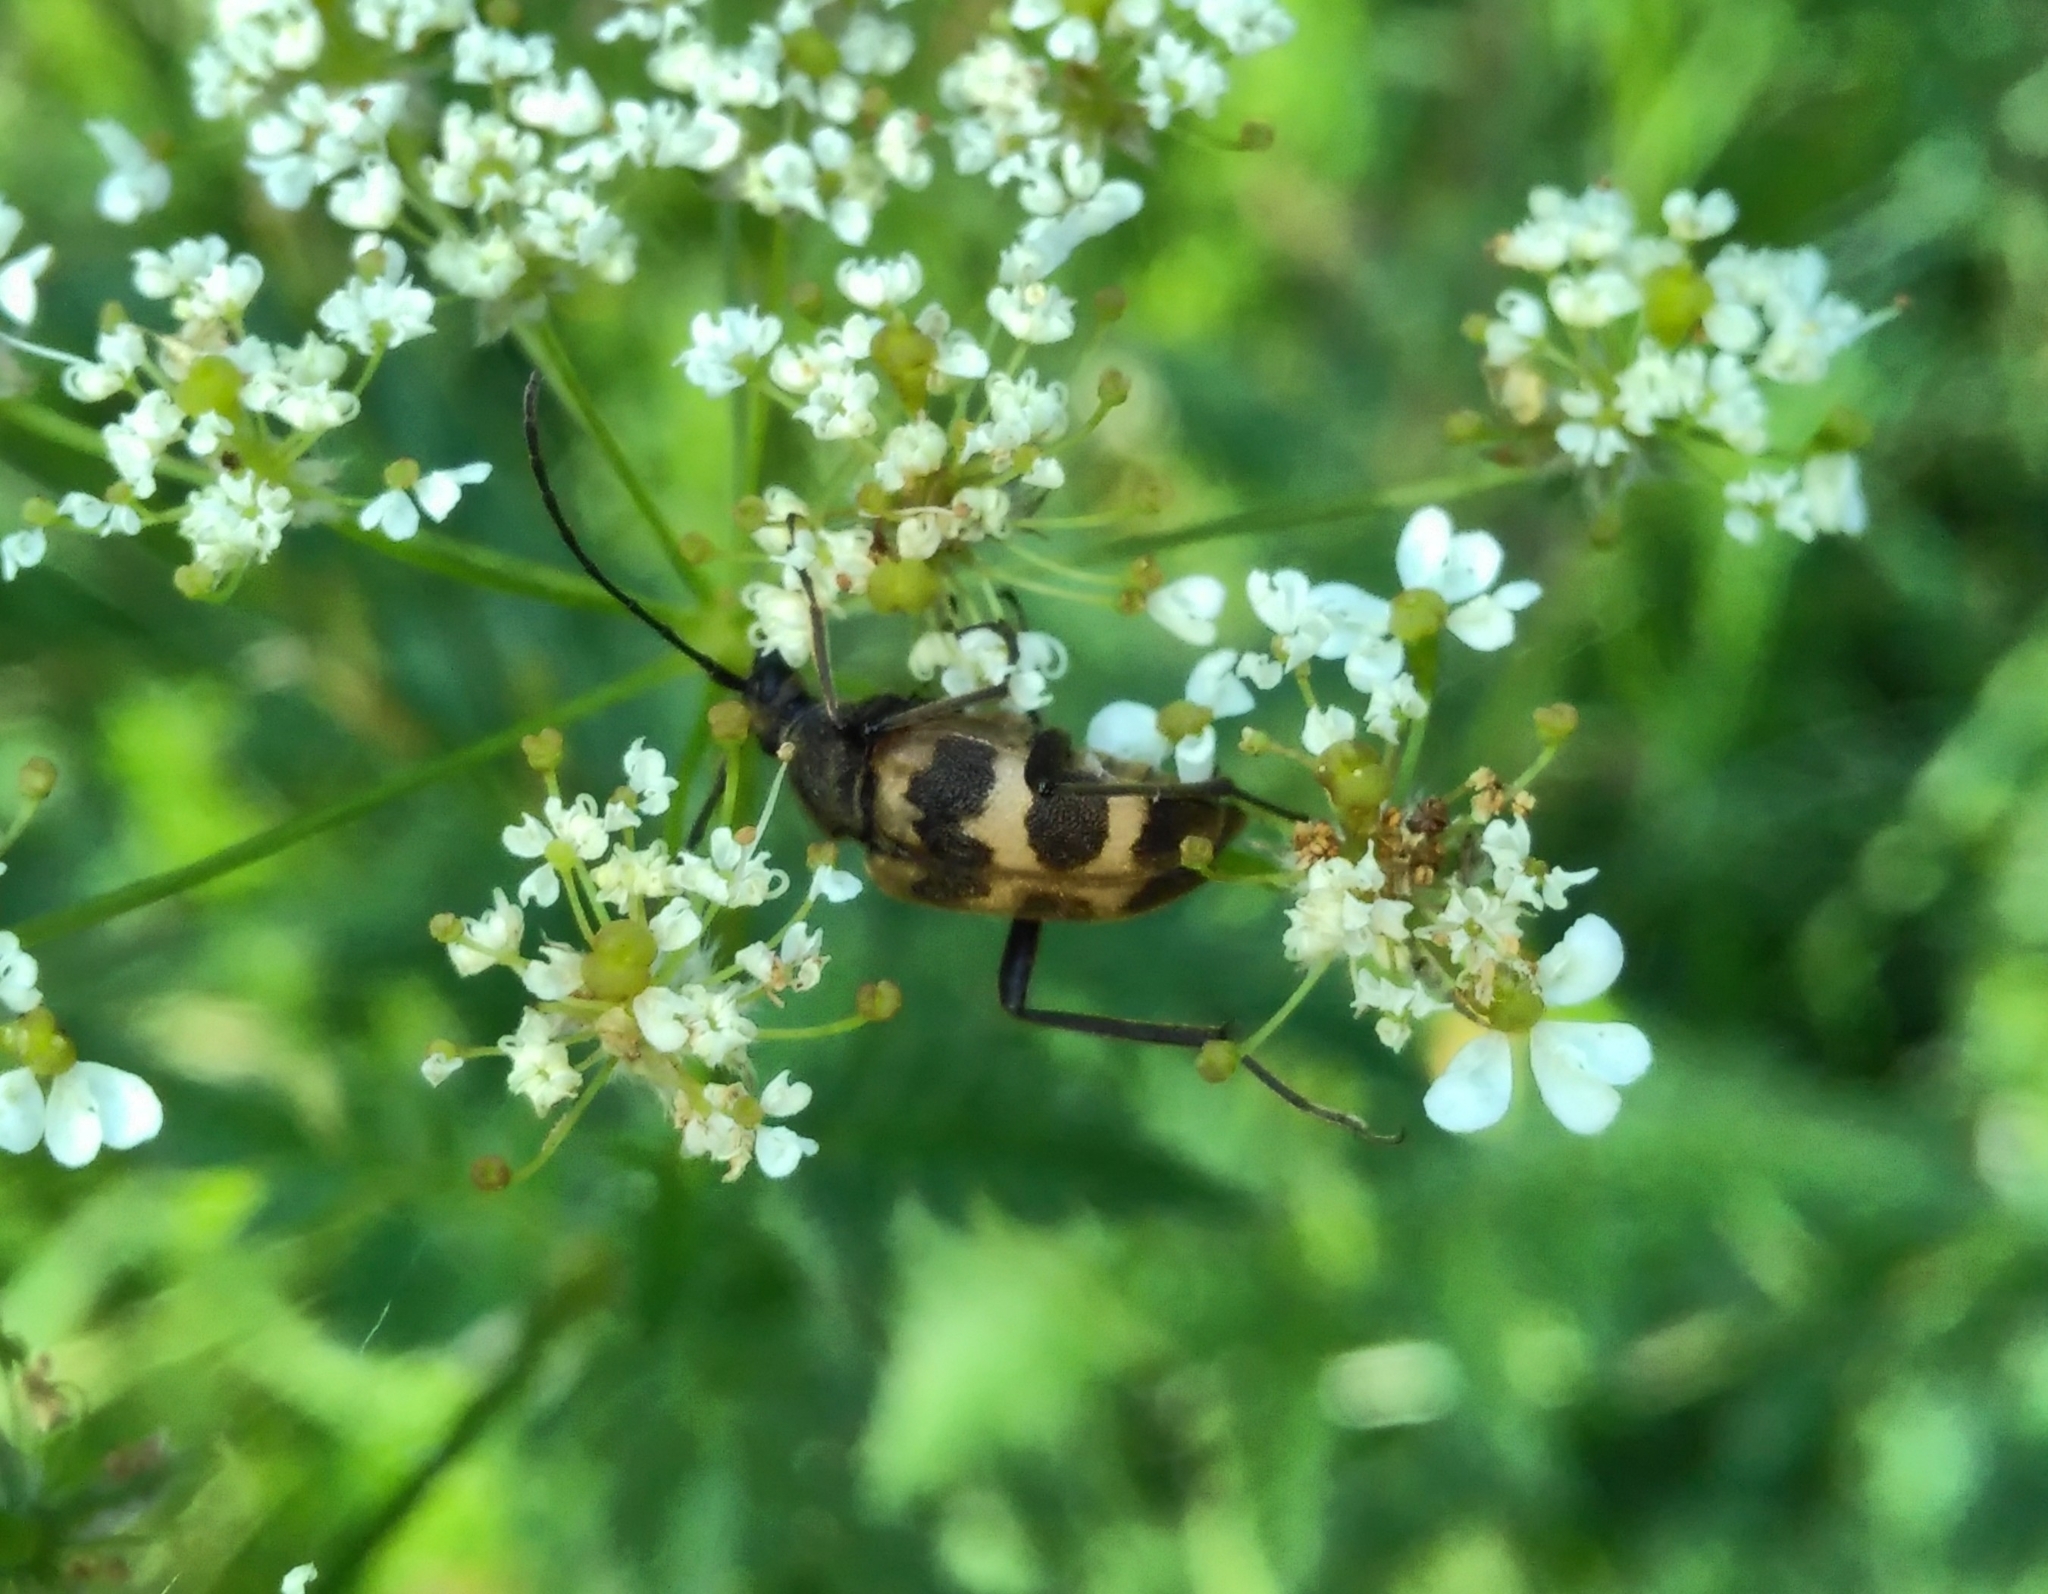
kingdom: Animalia
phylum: Arthropoda
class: Insecta
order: Coleoptera
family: Cerambycidae
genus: Pachytodes
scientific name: Pachytodes cerambyciformis
